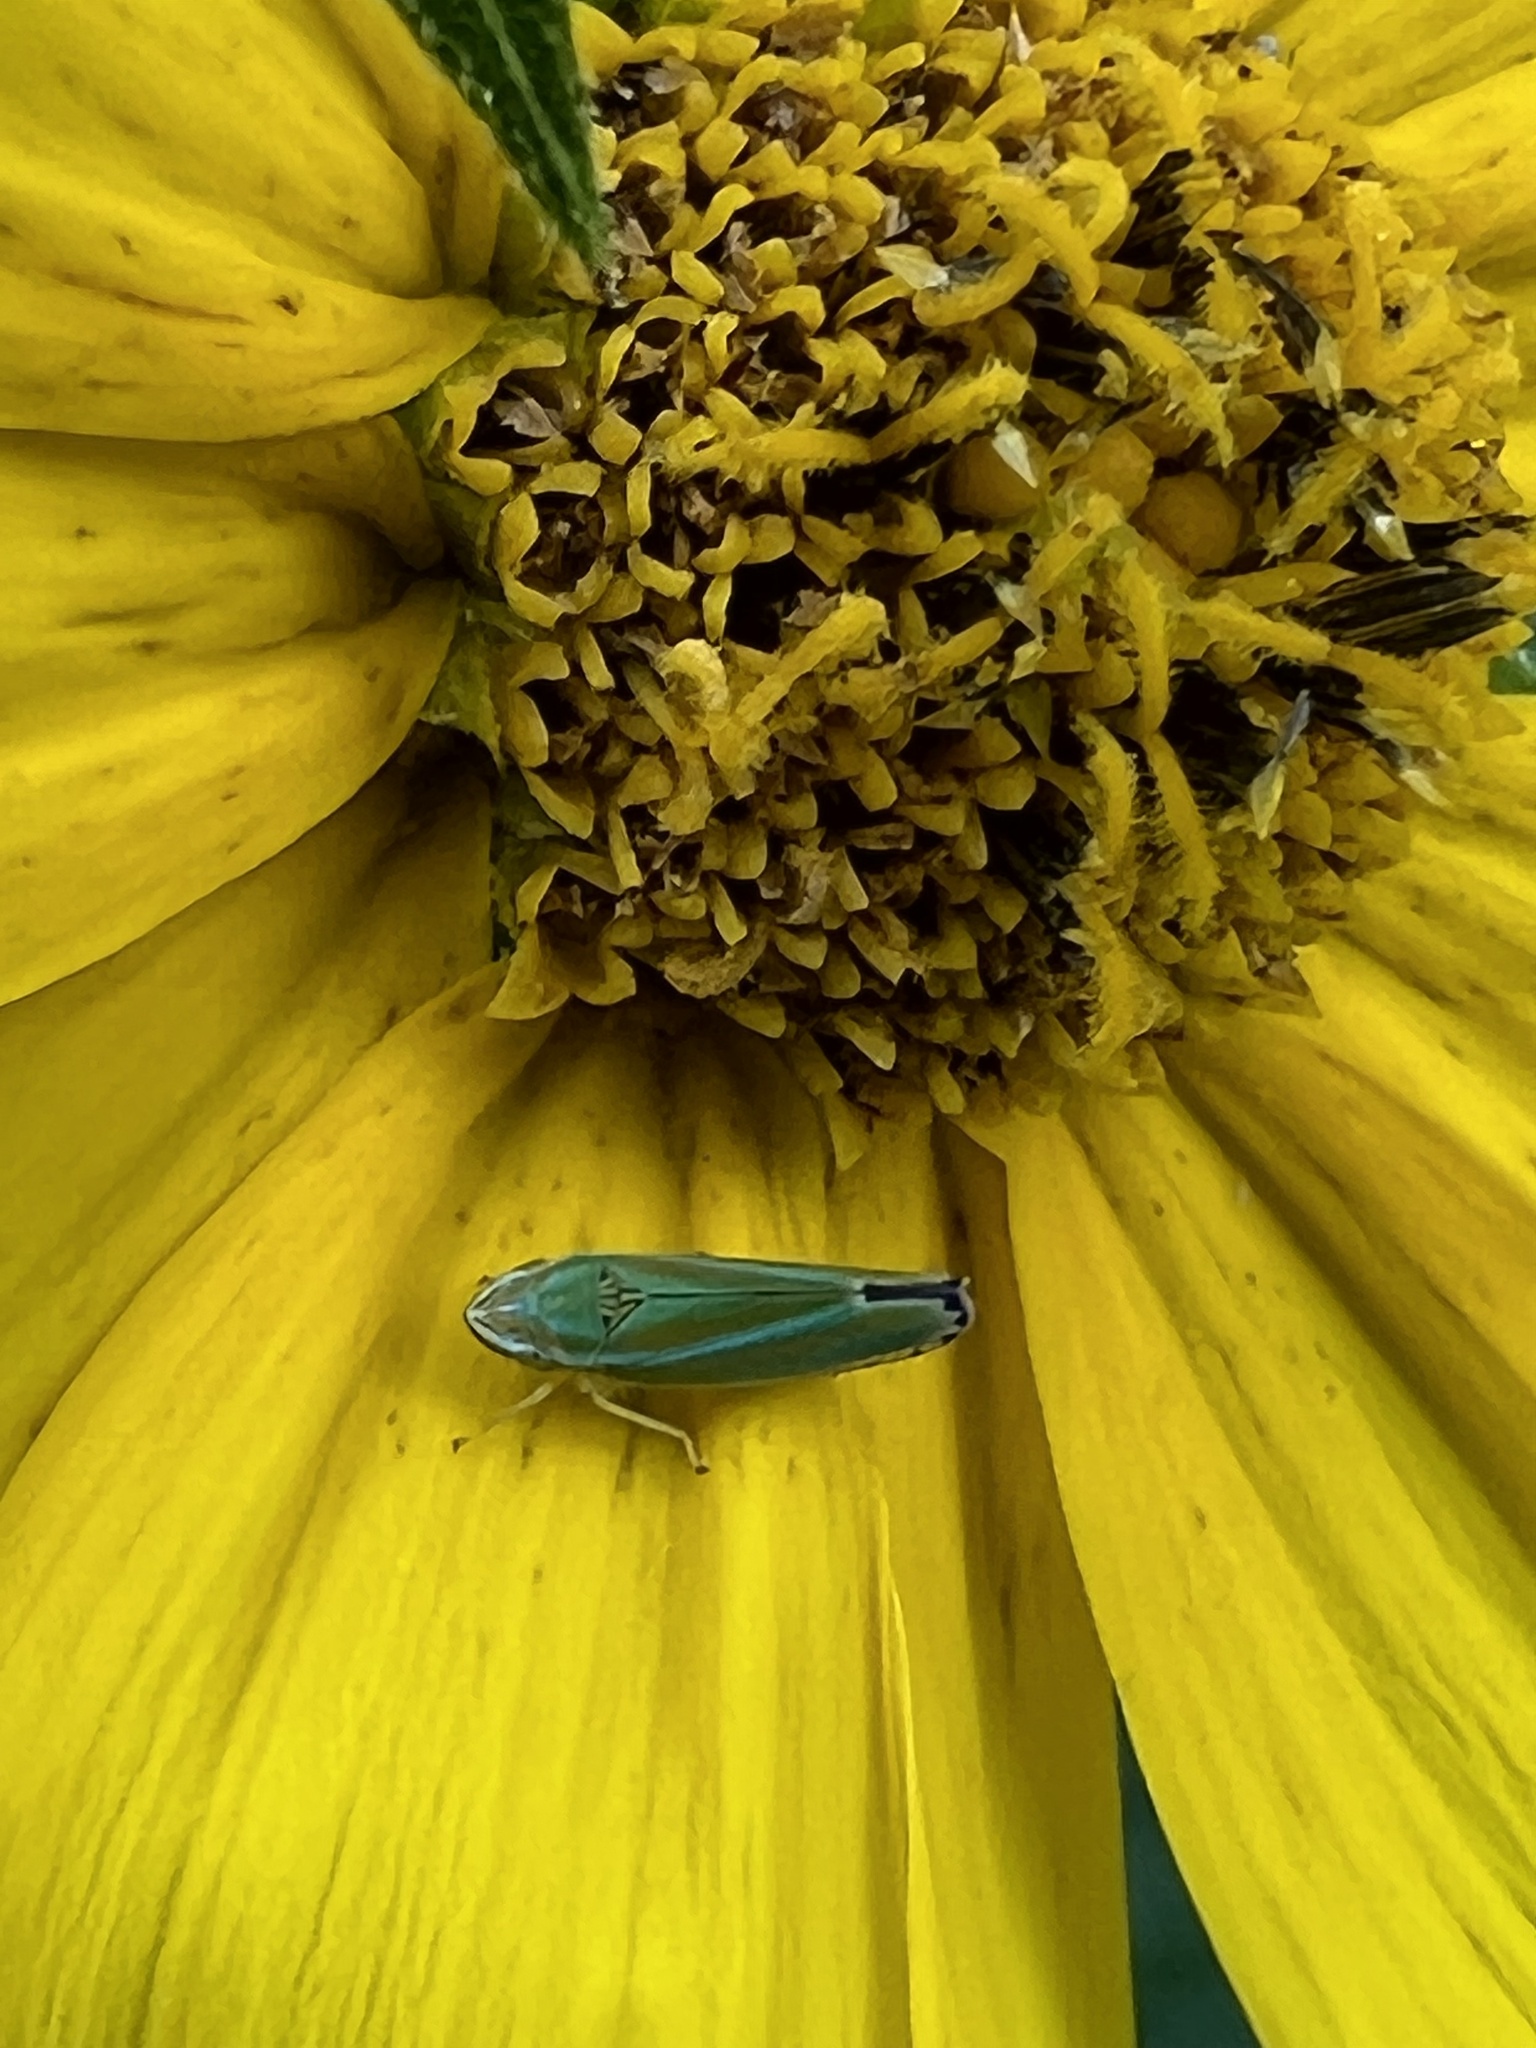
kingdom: Animalia
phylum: Arthropoda
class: Insecta
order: Hemiptera
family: Cicadellidae
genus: Graphocephala
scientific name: Graphocephala versuta
